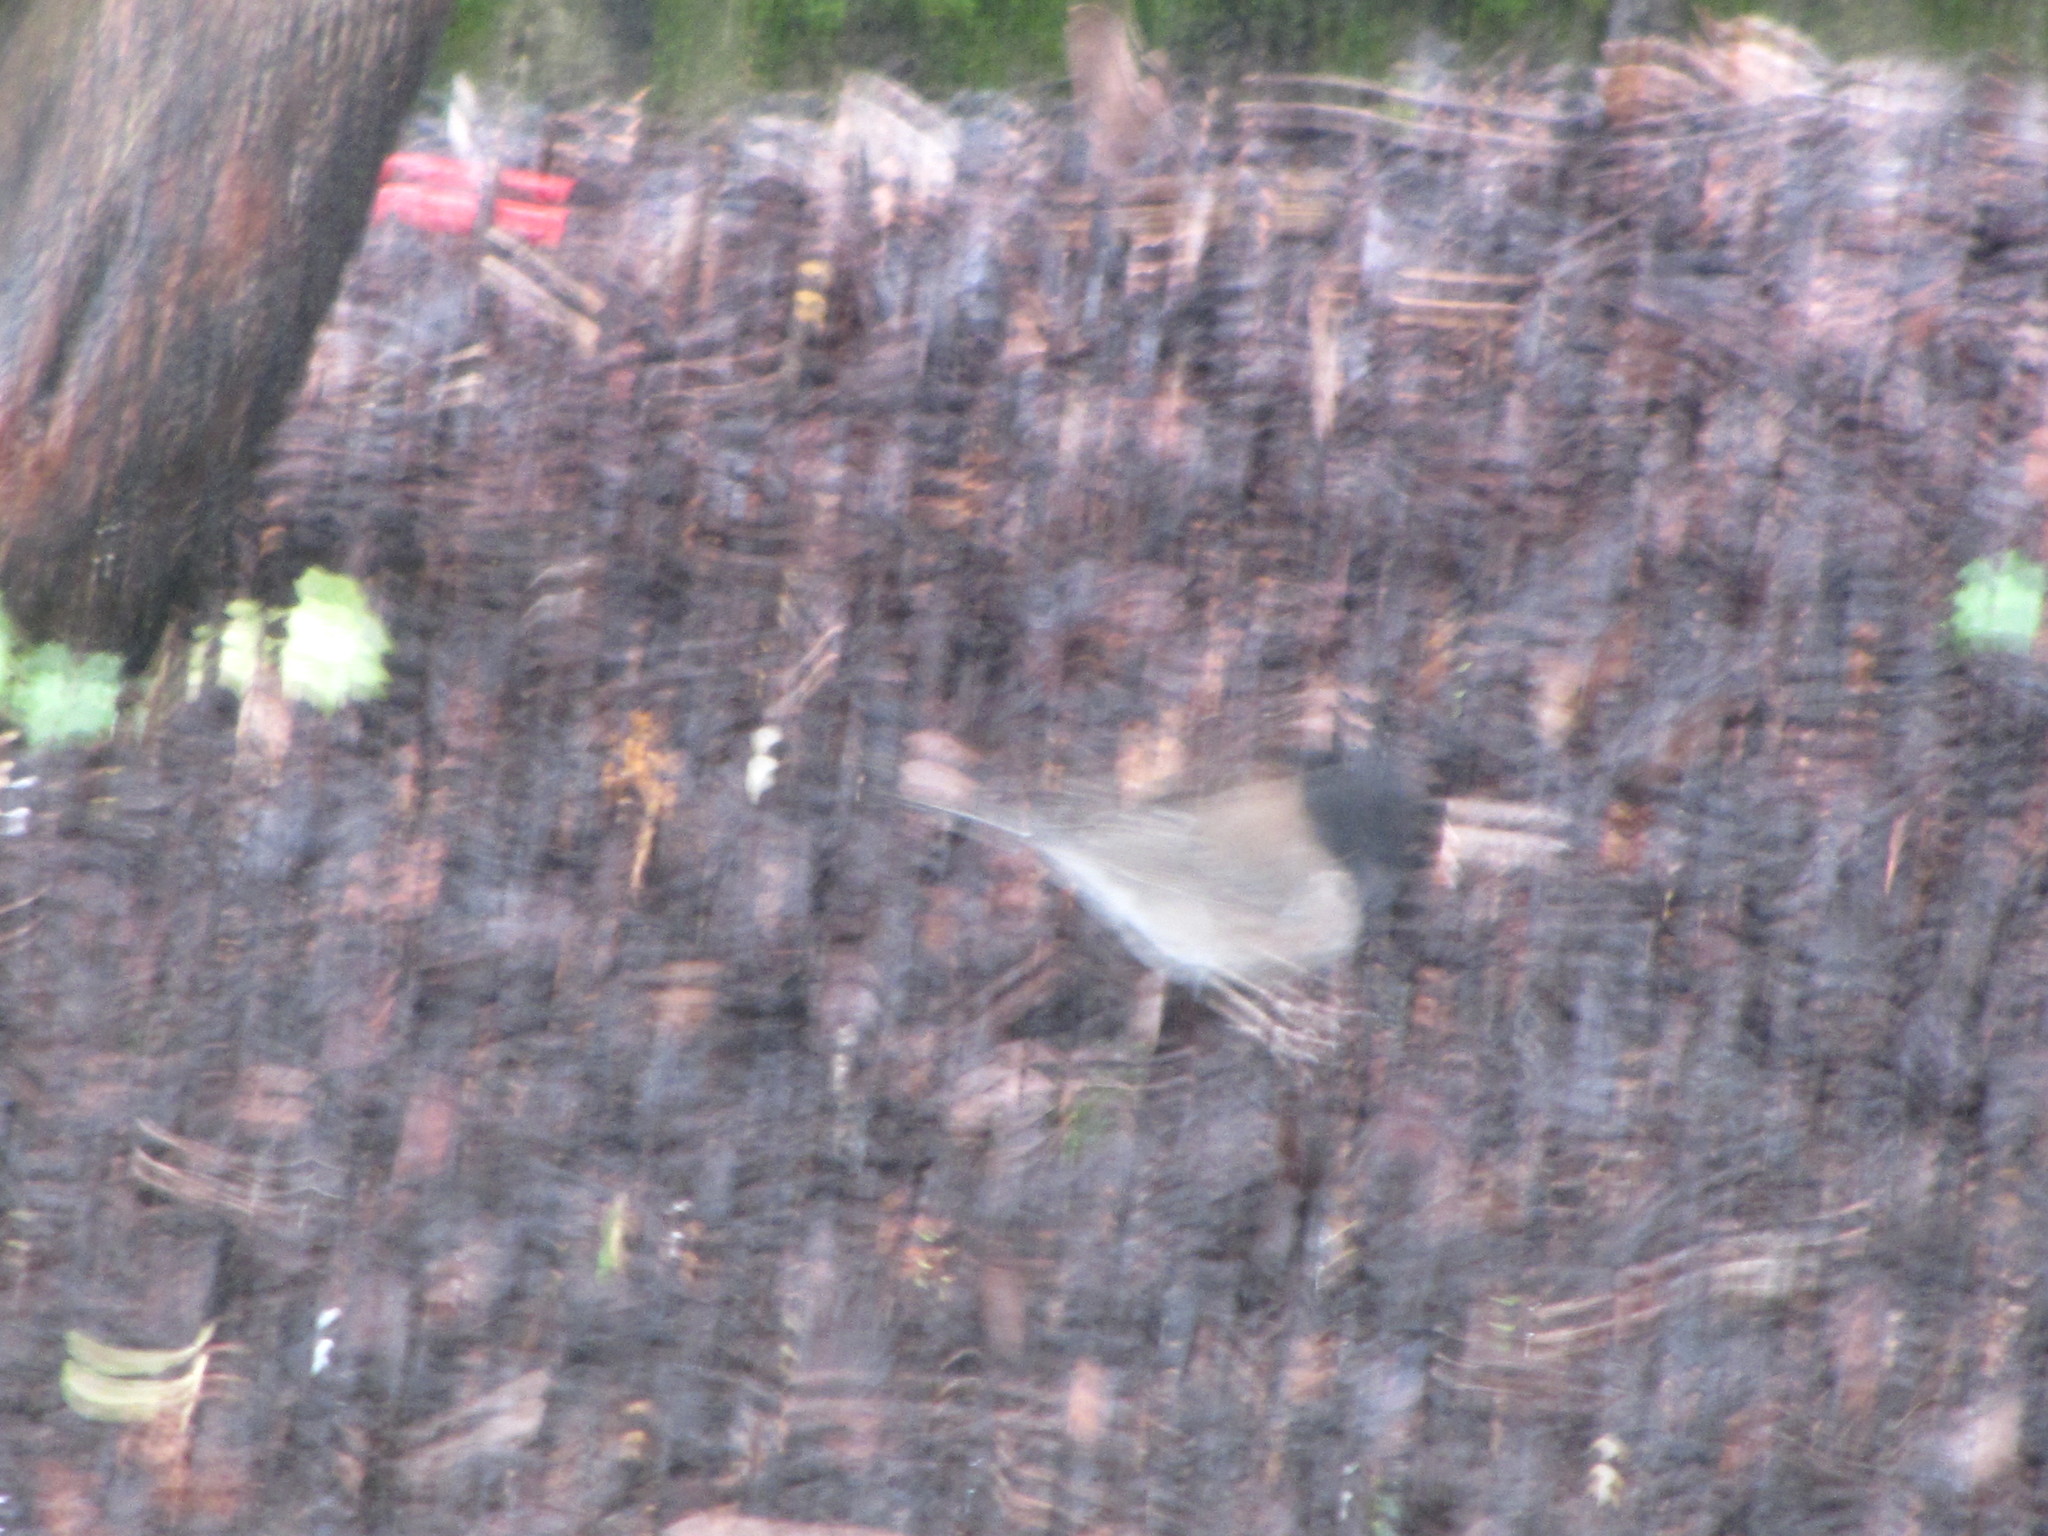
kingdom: Animalia
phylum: Chordata
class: Aves
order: Passeriformes
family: Passerellidae
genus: Junco
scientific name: Junco hyemalis
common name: Dark-eyed junco
